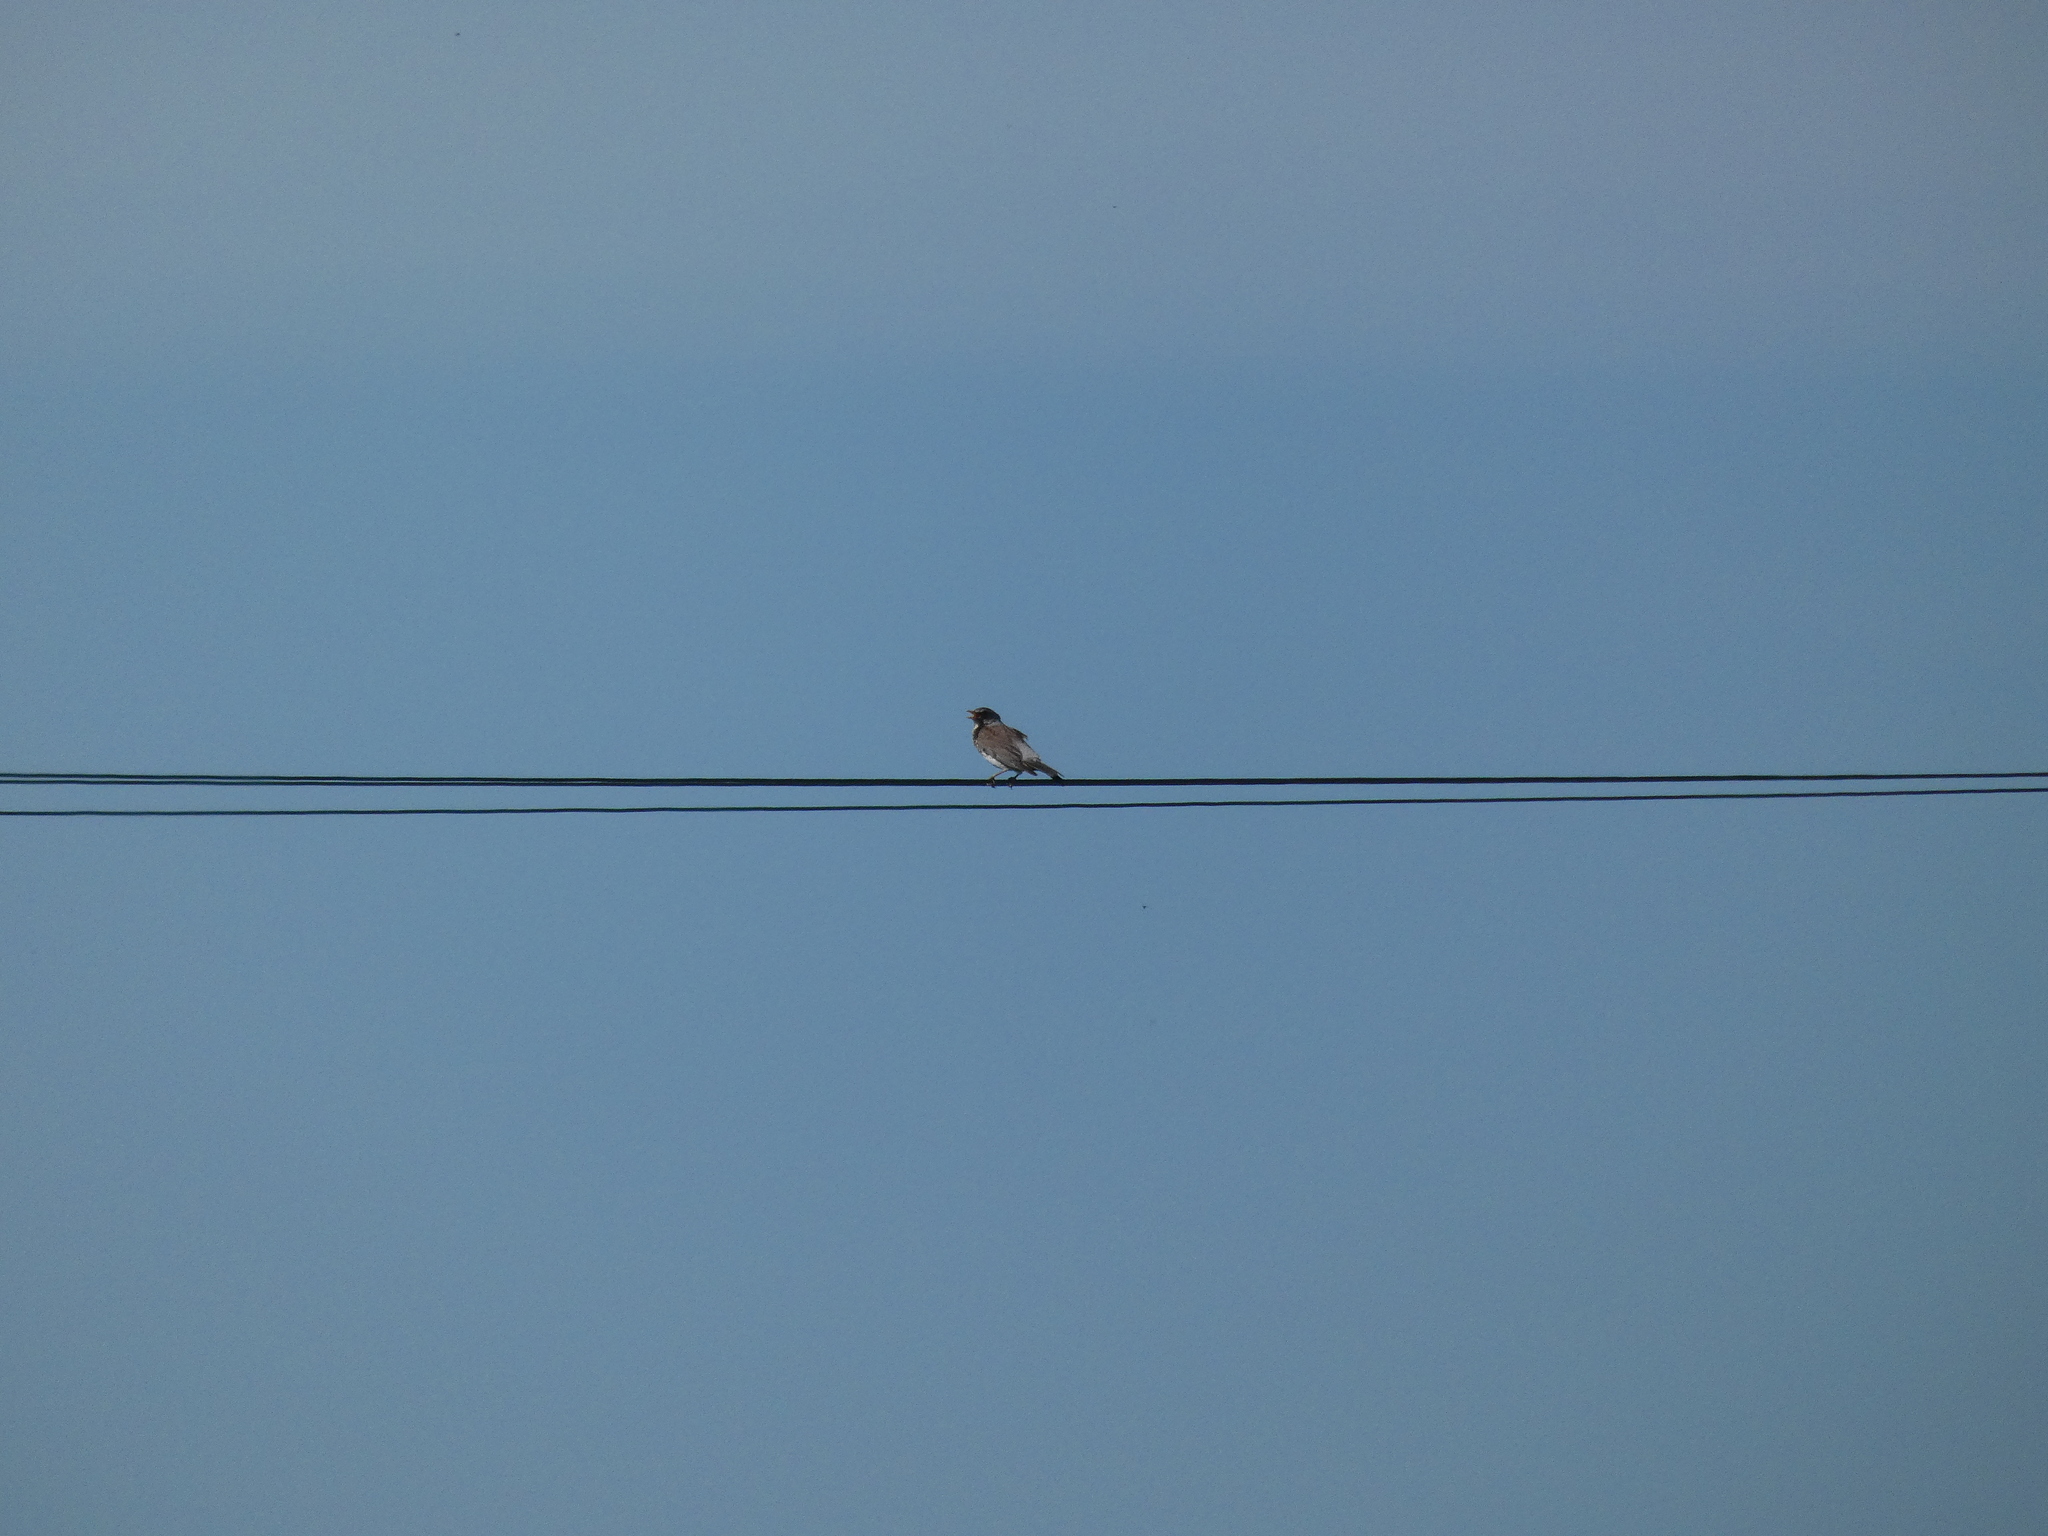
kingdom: Animalia
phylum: Chordata
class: Aves
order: Passeriformes
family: Turdidae
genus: Turdus
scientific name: Turdus pilaris
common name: Fieldfare
